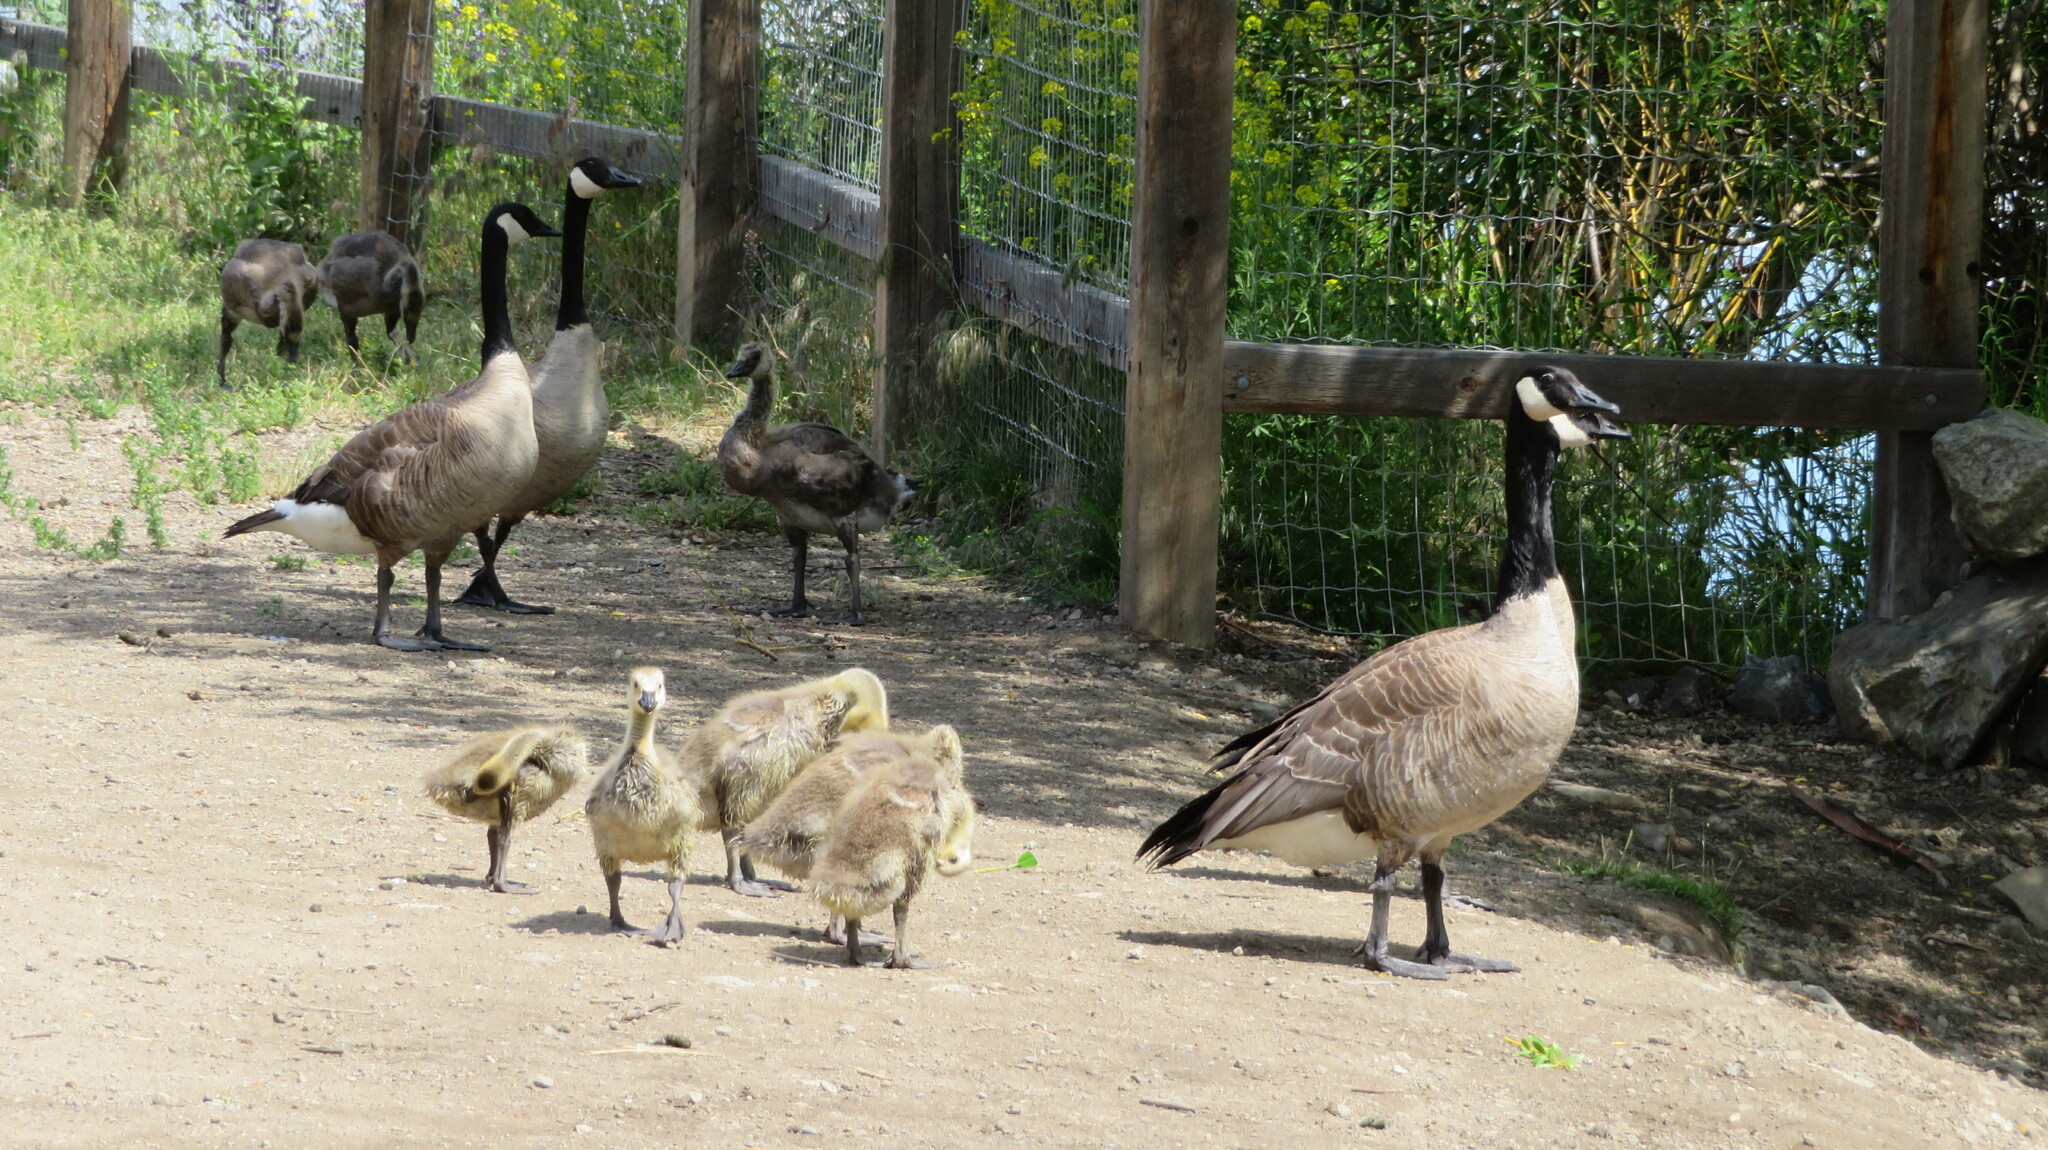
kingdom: Animalia
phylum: Chordata
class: Aves
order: Anseriformes
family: Anatidae
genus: Branta
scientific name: Branta canadensis
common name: Canada goose
